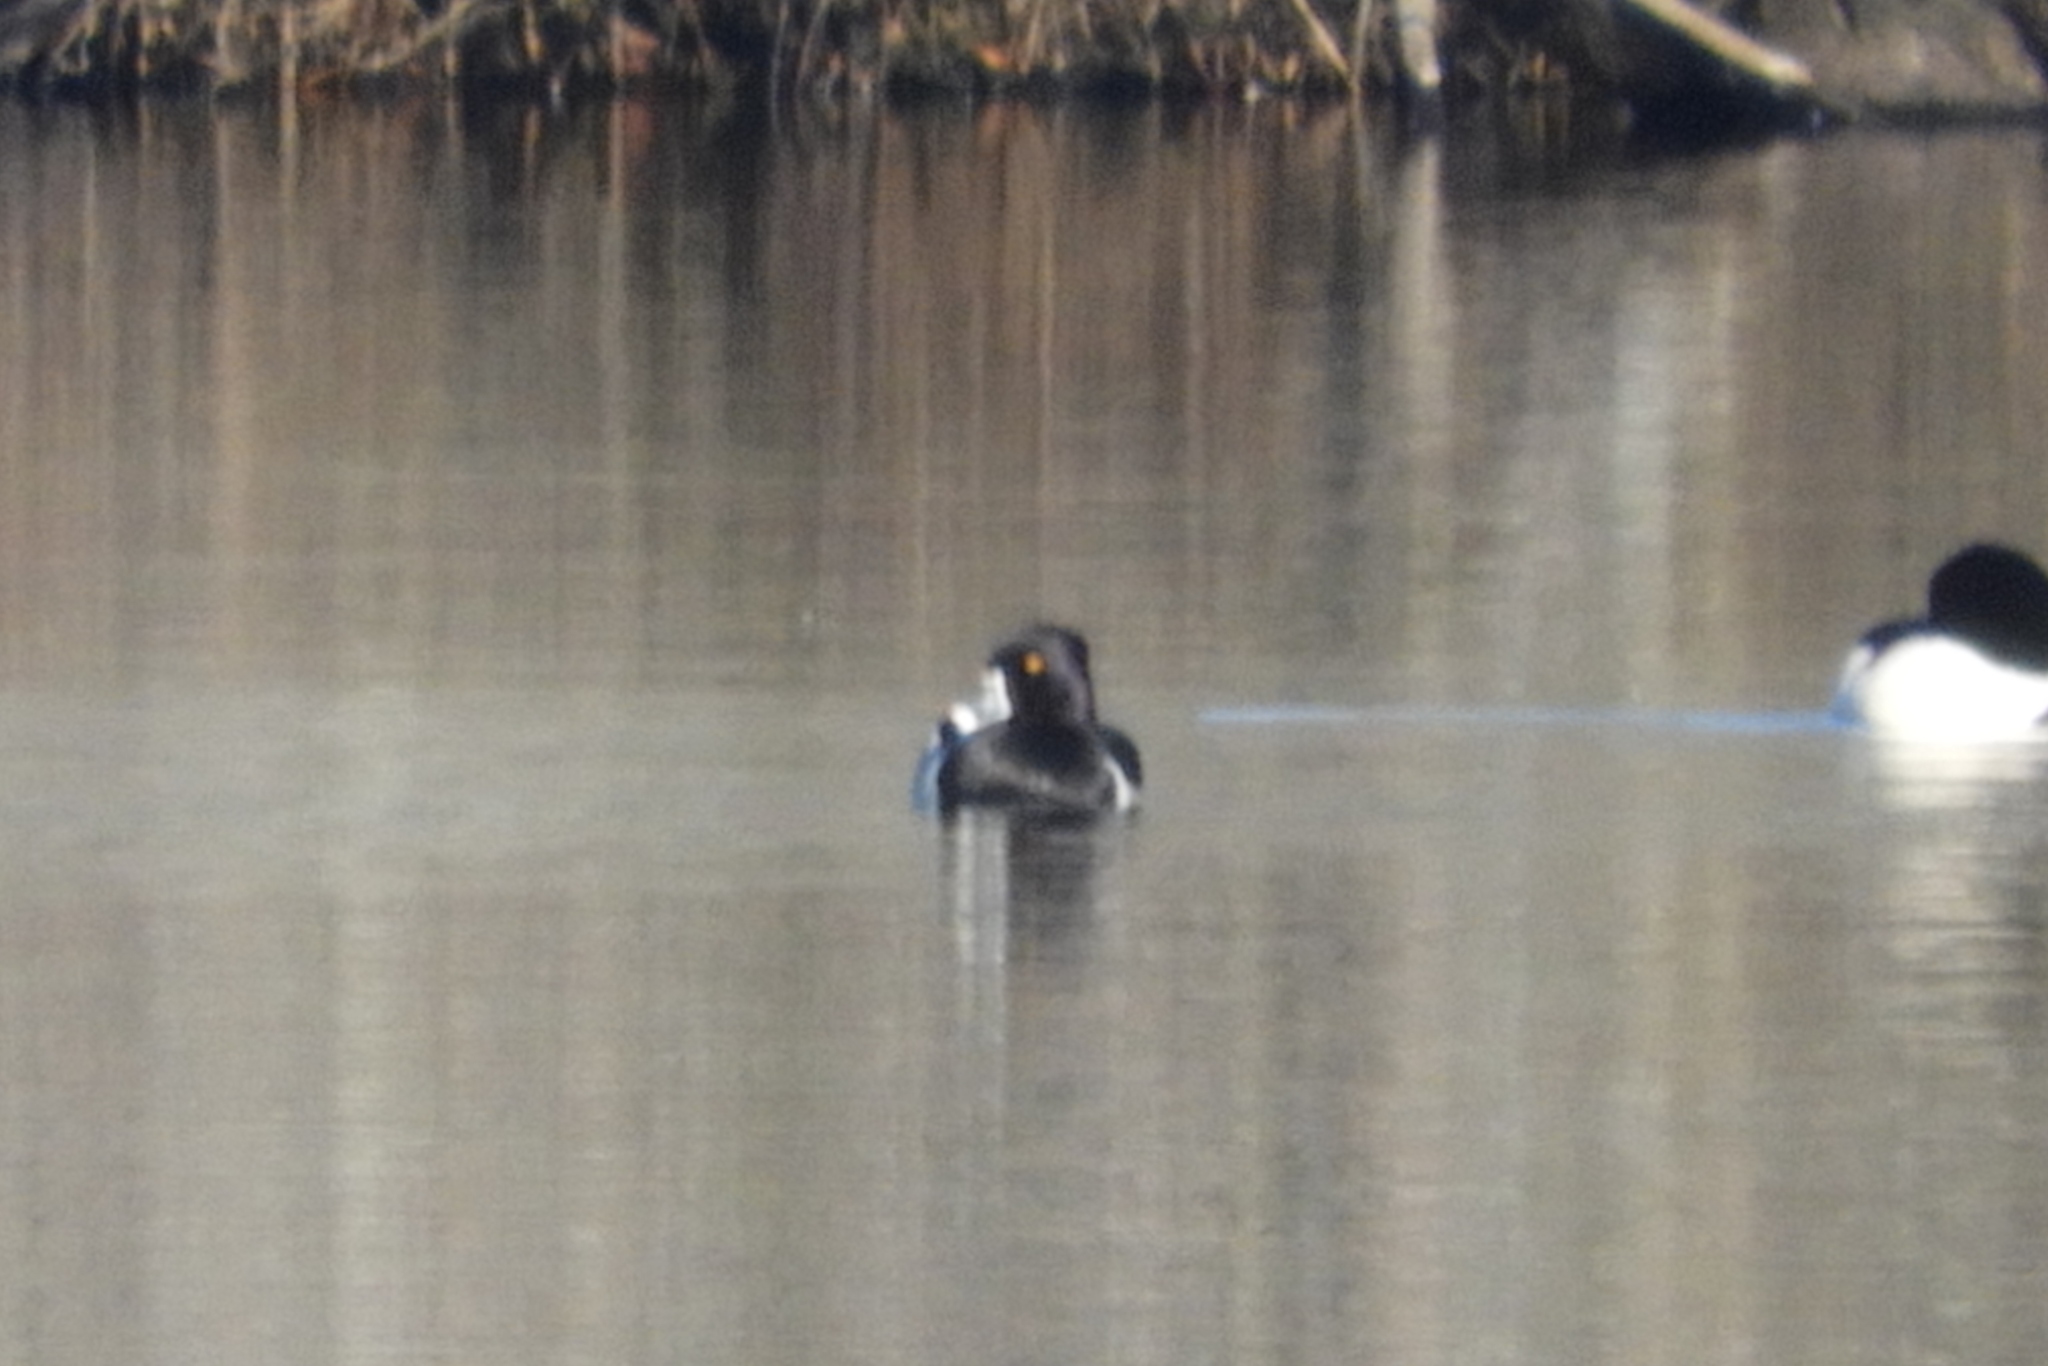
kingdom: Animalia
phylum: Chordata
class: Aves
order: Anseriformes
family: Anatidae
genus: Aythya
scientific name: Aythya collaris
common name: Ring-necked duck
